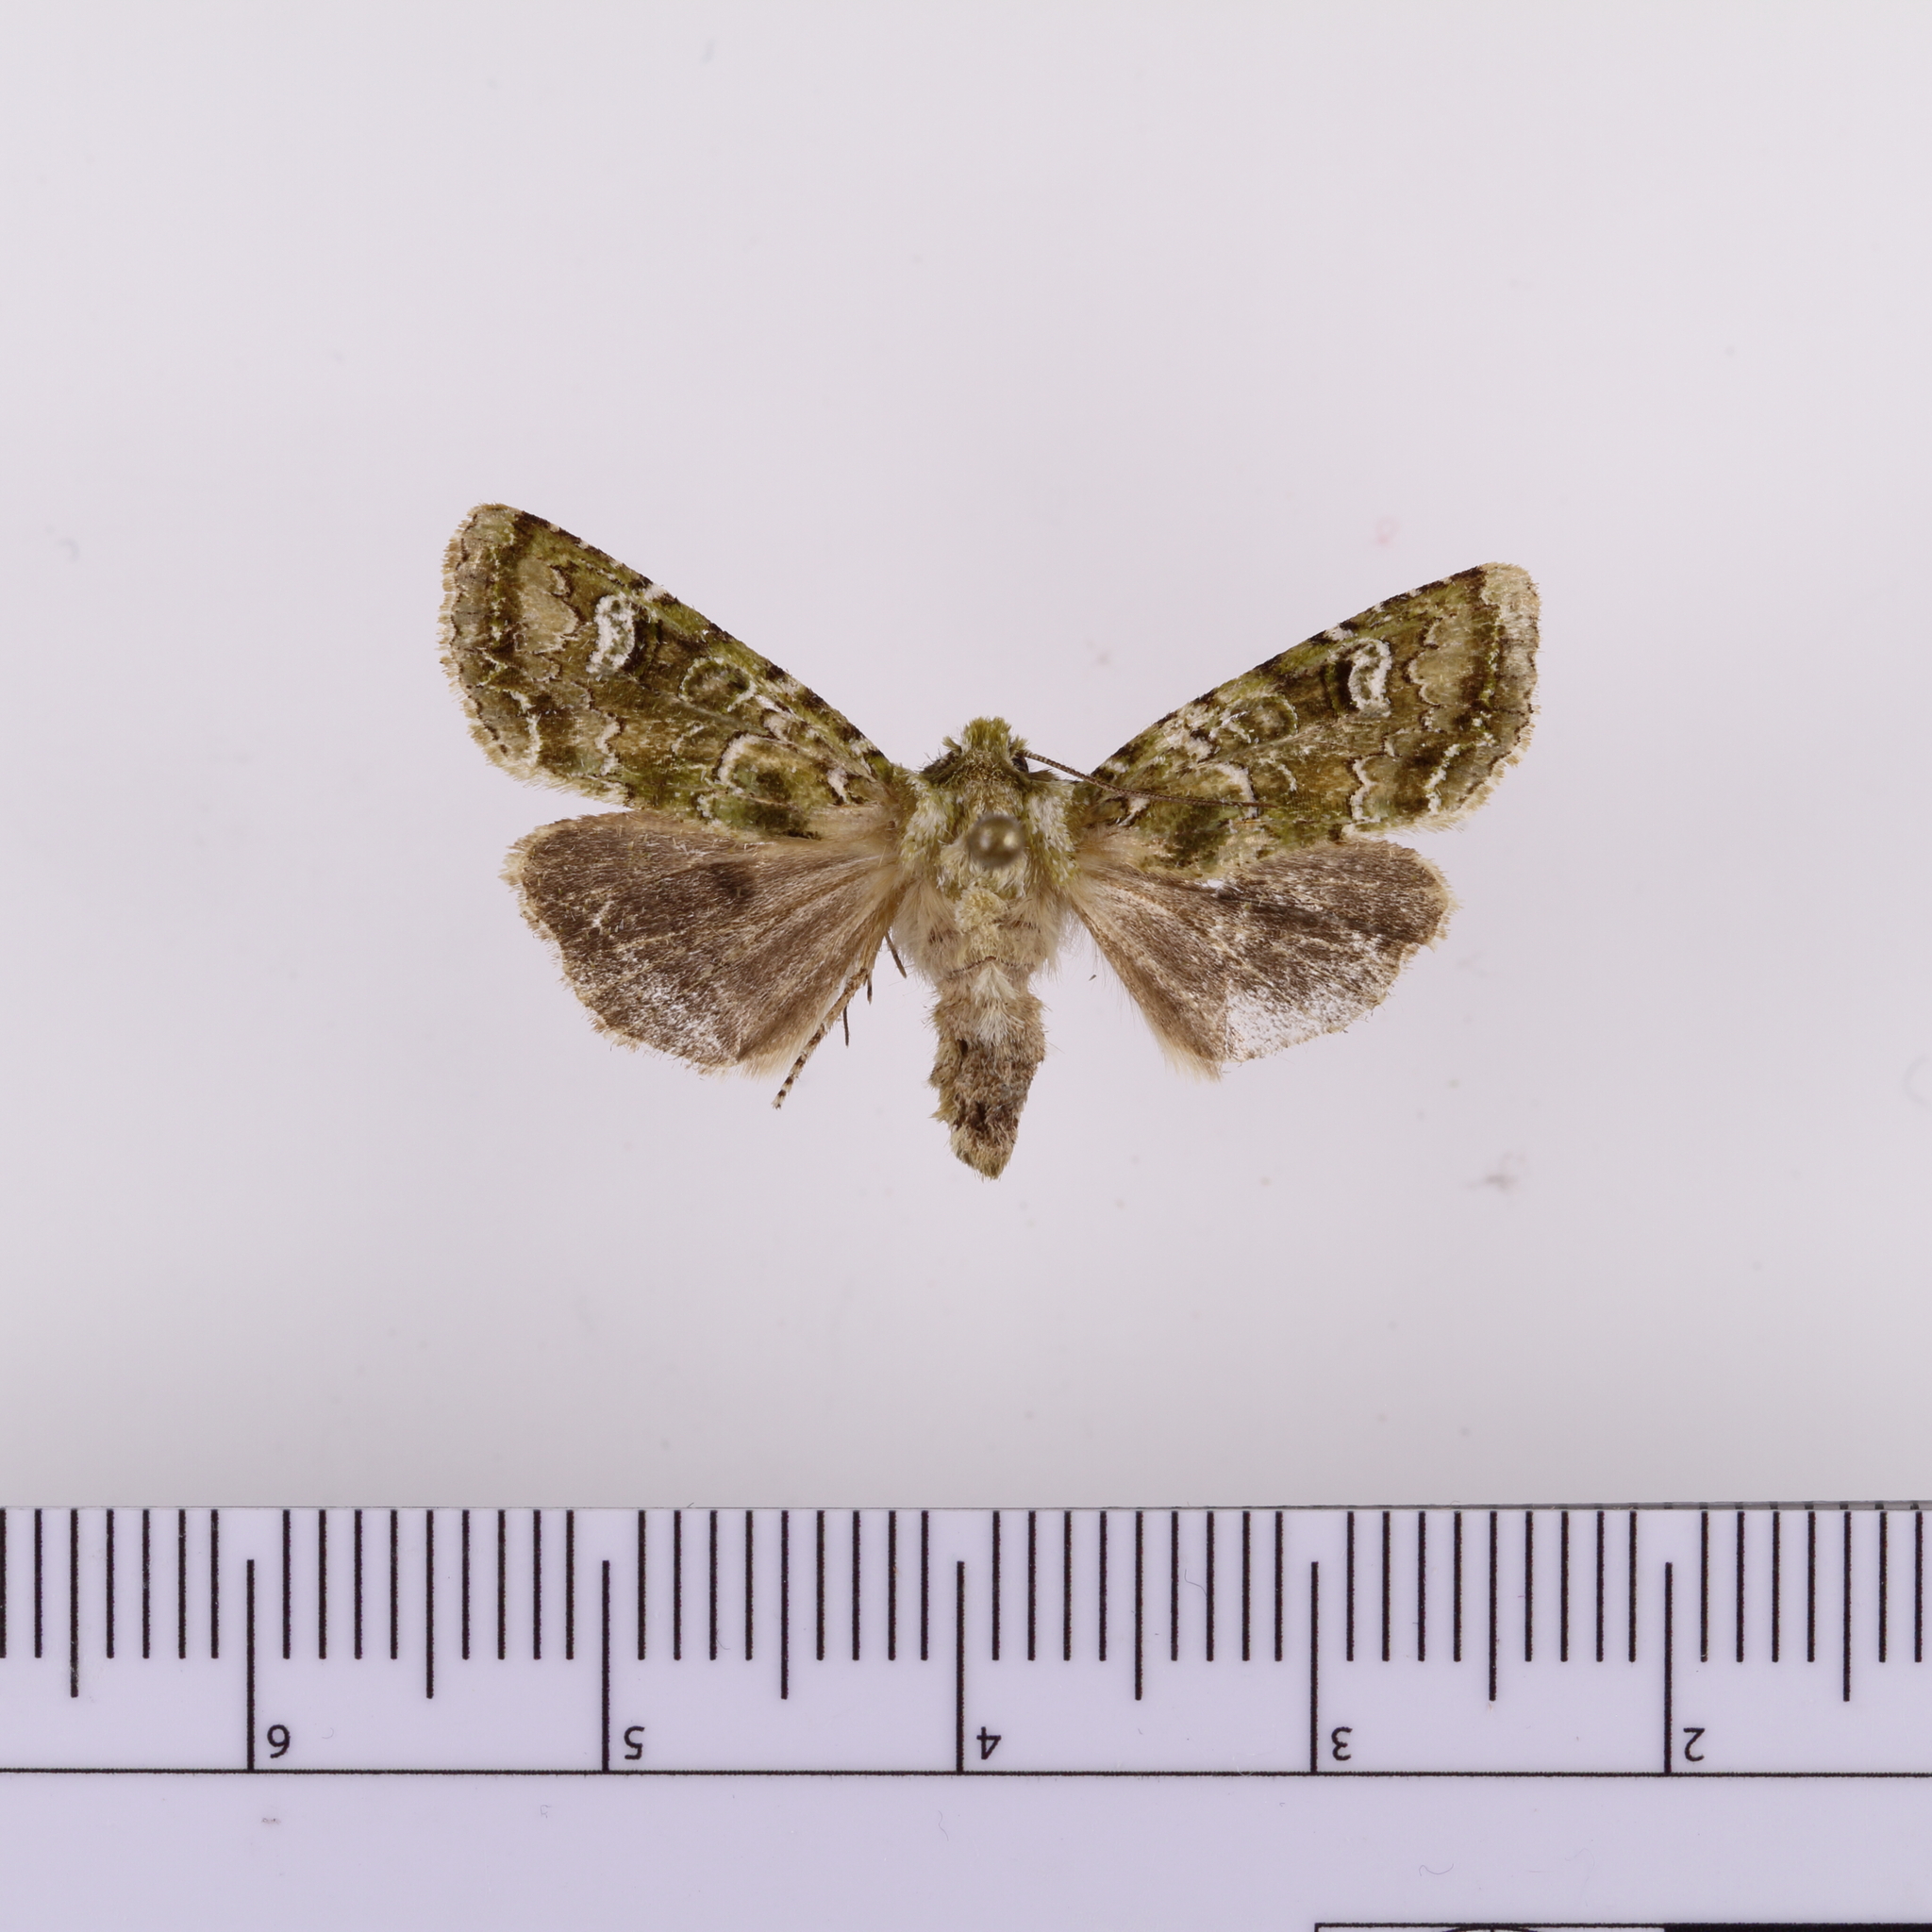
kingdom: Animalia
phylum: Arthropoda
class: Insecta
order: Lepidoptera
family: Noctuidae
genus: Ichneutica
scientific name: Ichneutica
